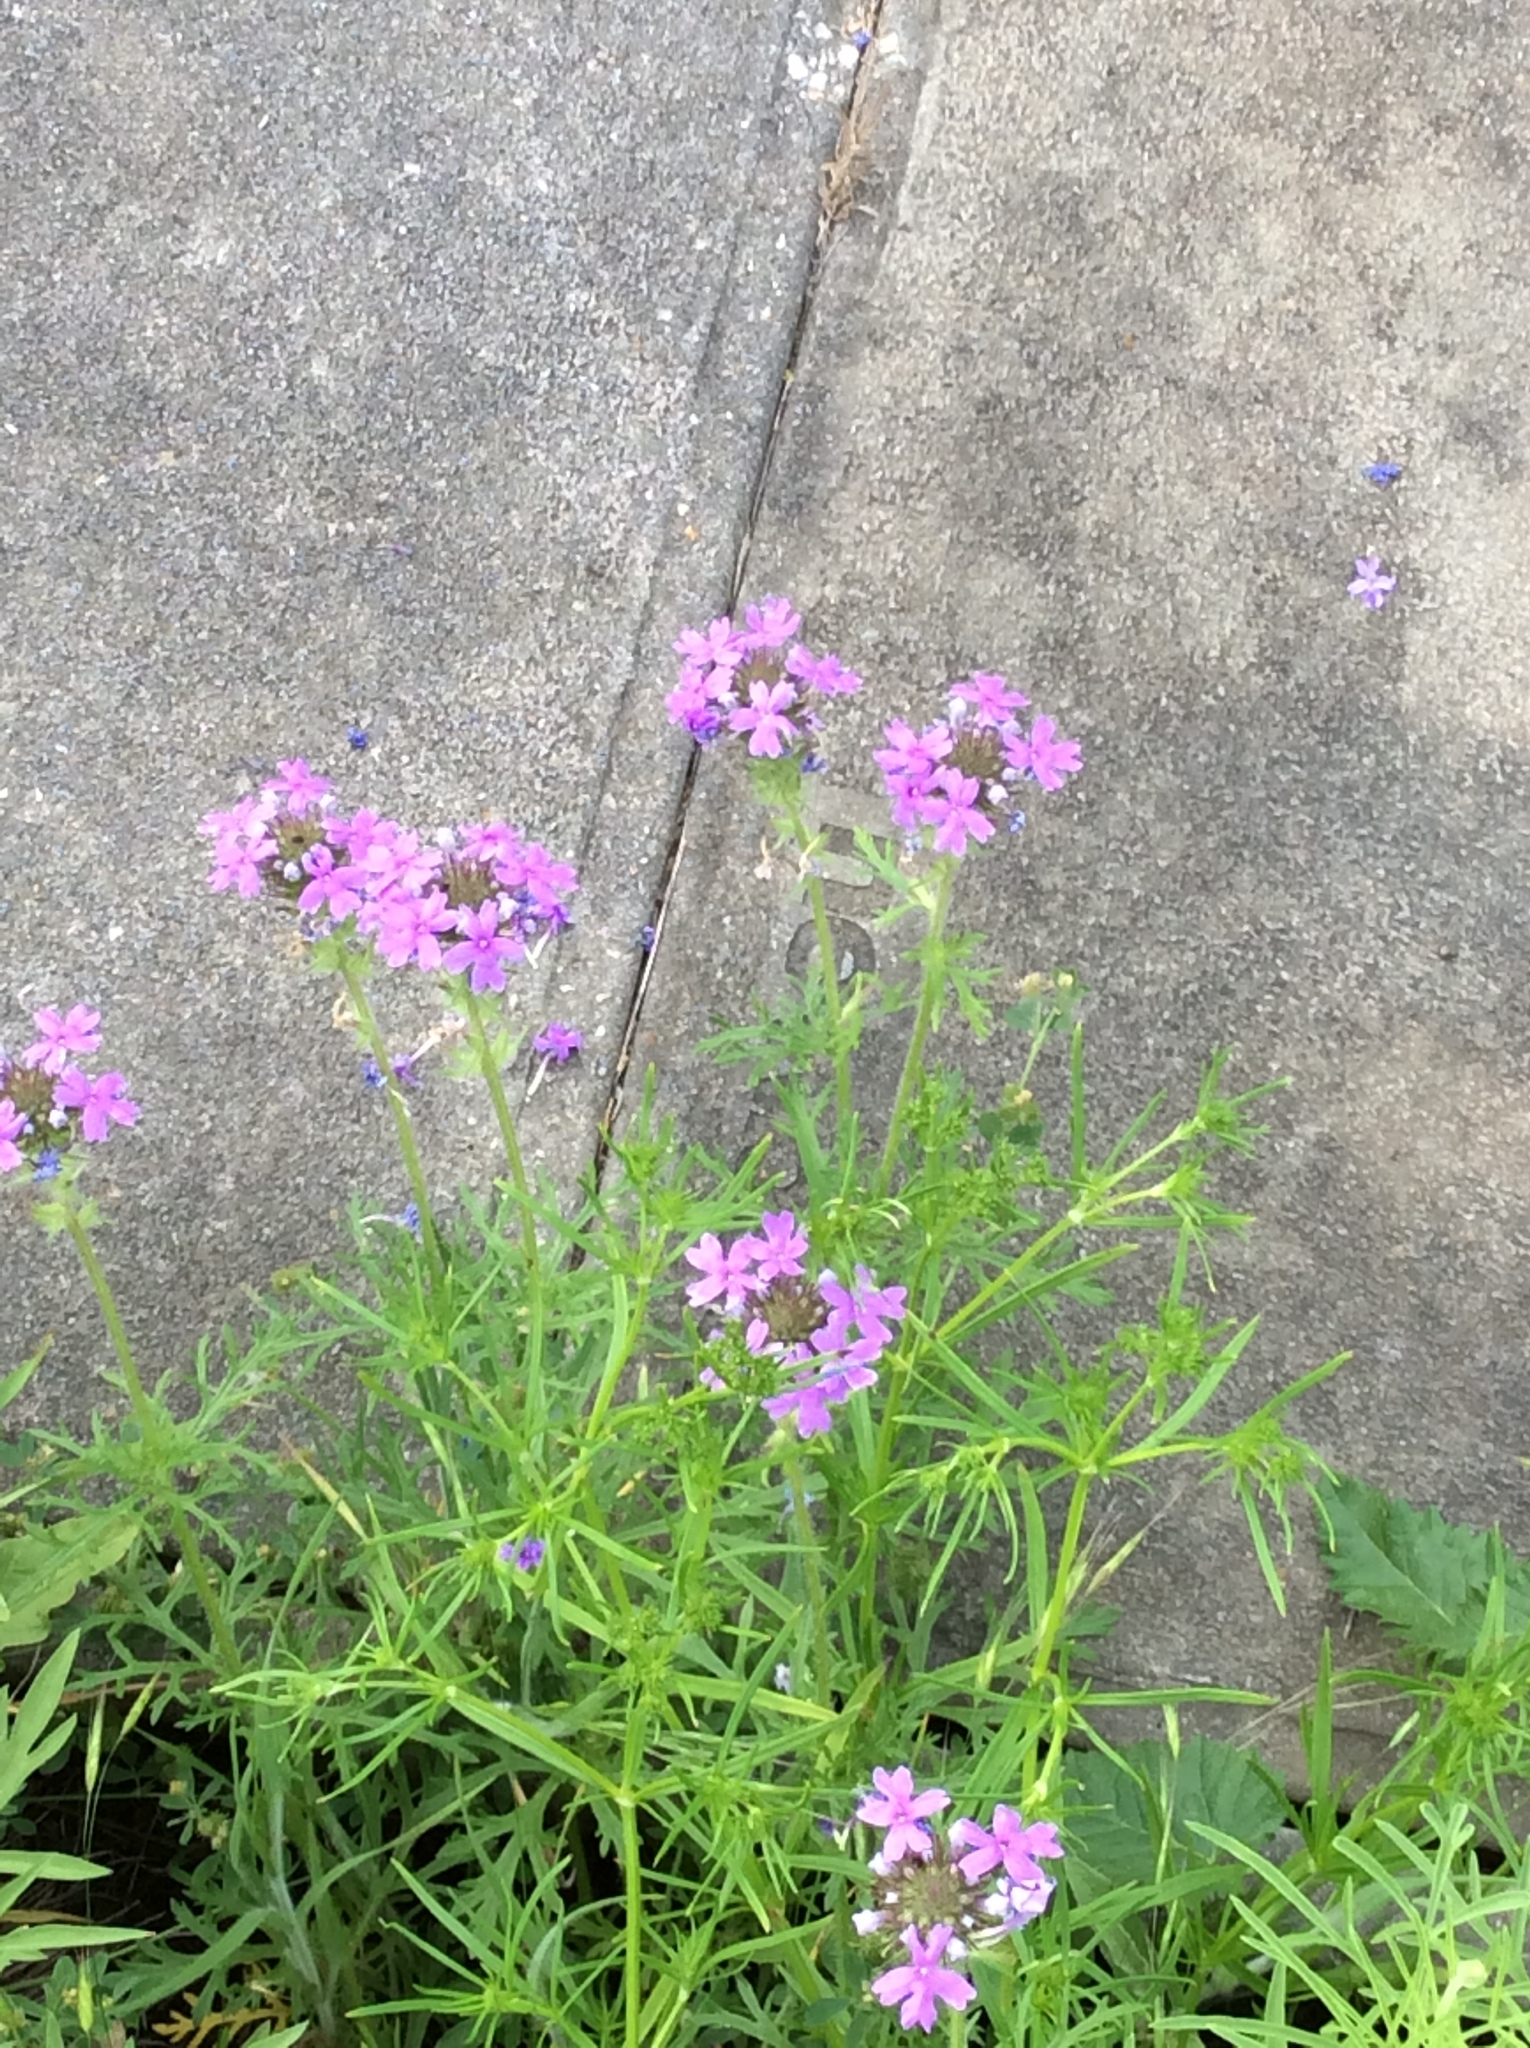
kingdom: Plantae
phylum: Tracheophyta
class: Magnoliopsida
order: Lamiales
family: Verbenaceae
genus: Verbena
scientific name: Verbena
